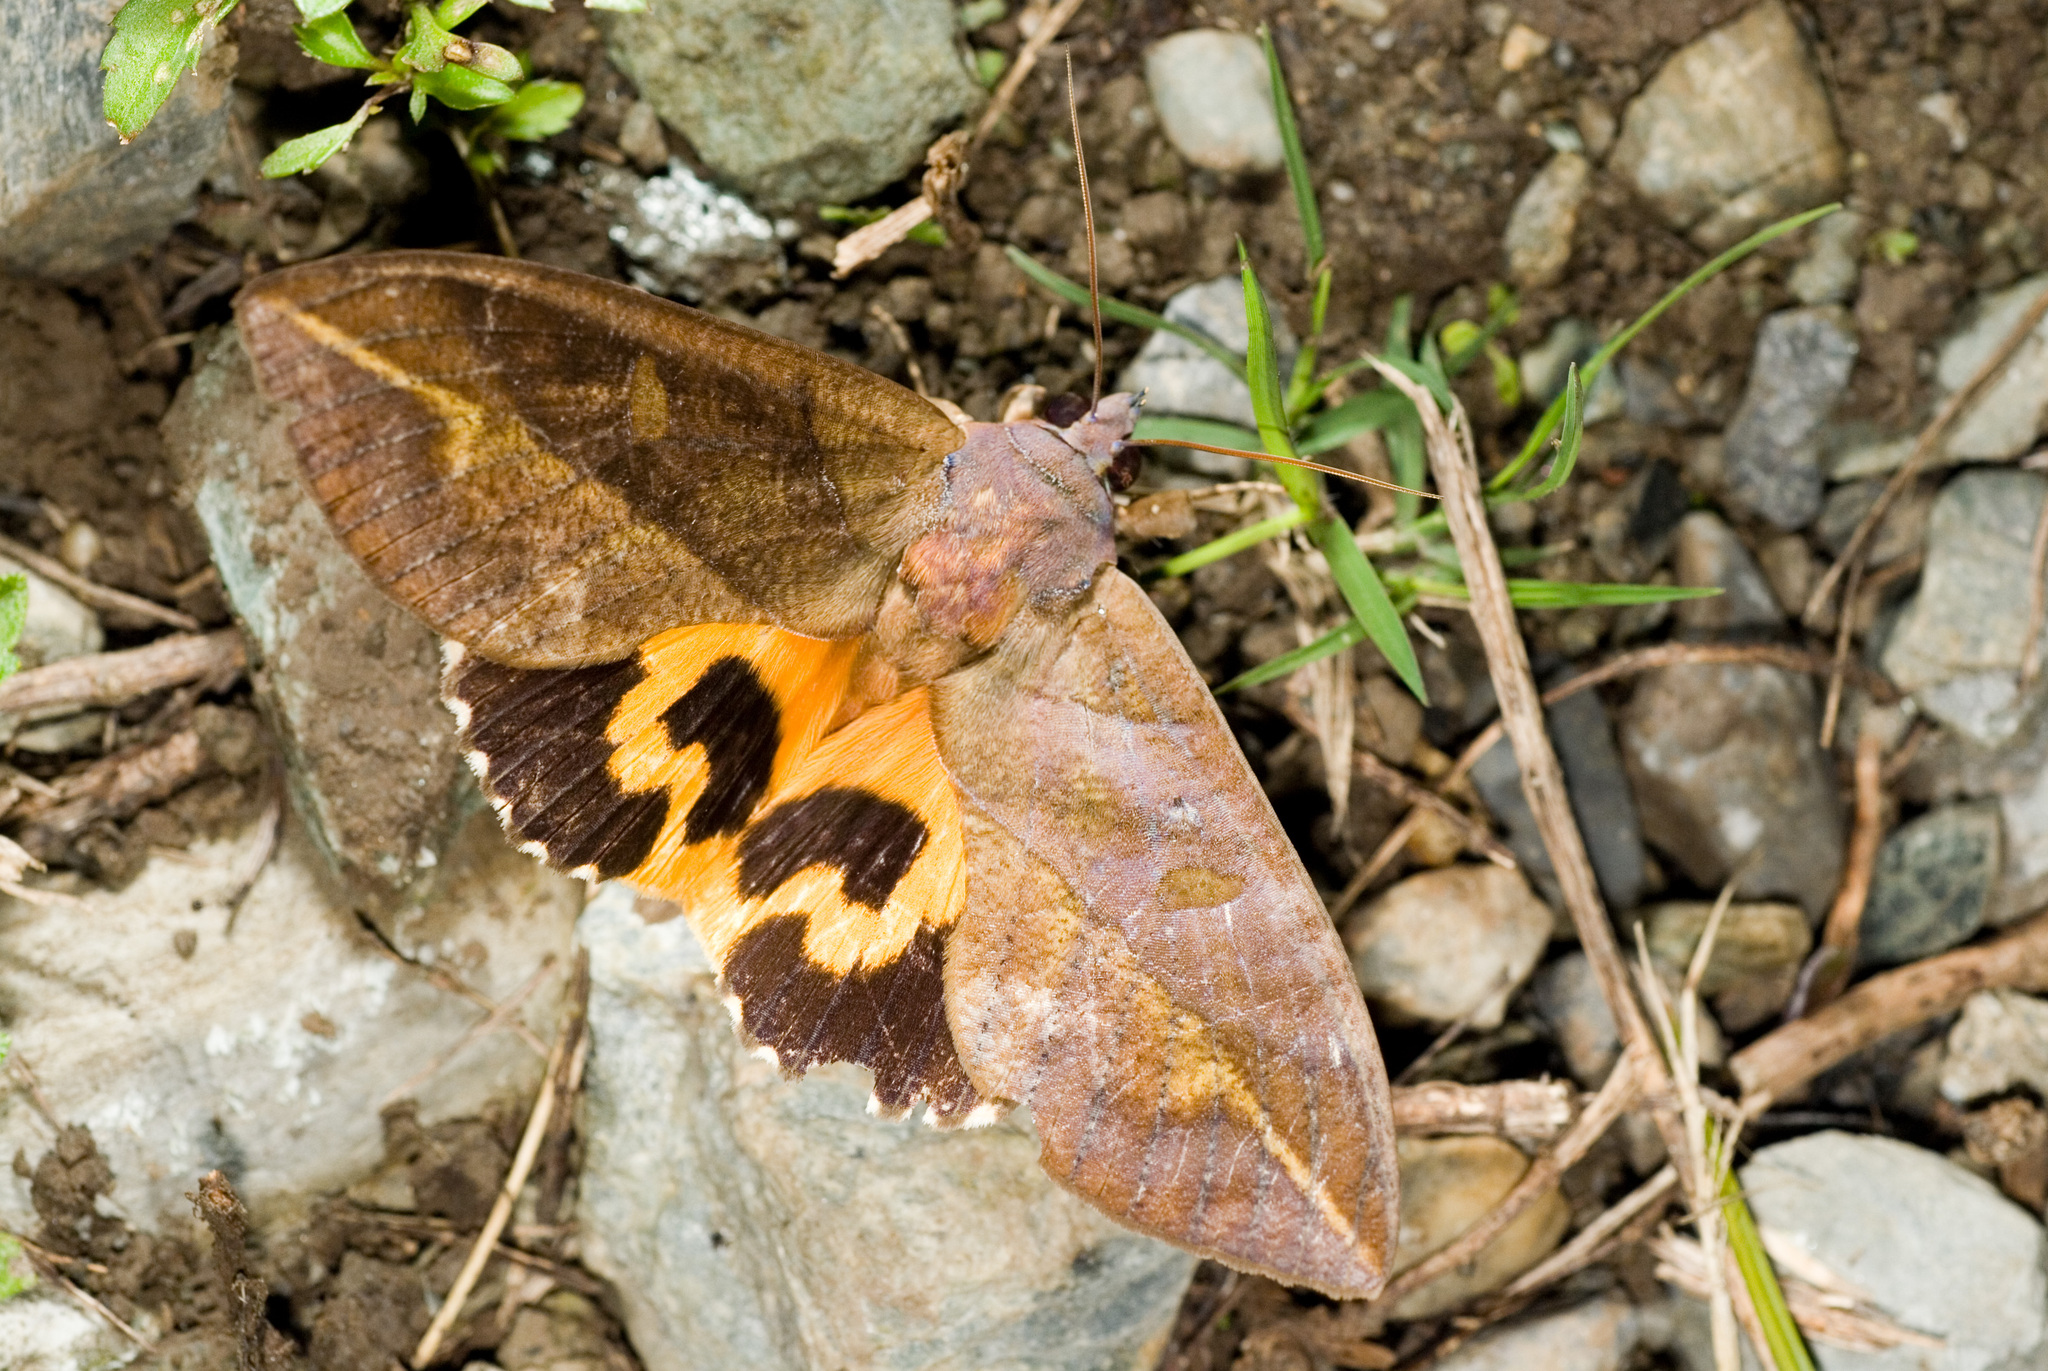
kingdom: Animalia
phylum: Arthropoda
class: Insecta
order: Lepidoptera
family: Erebidae
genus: Eudocima
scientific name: Eudocima phalonia
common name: Wasp
